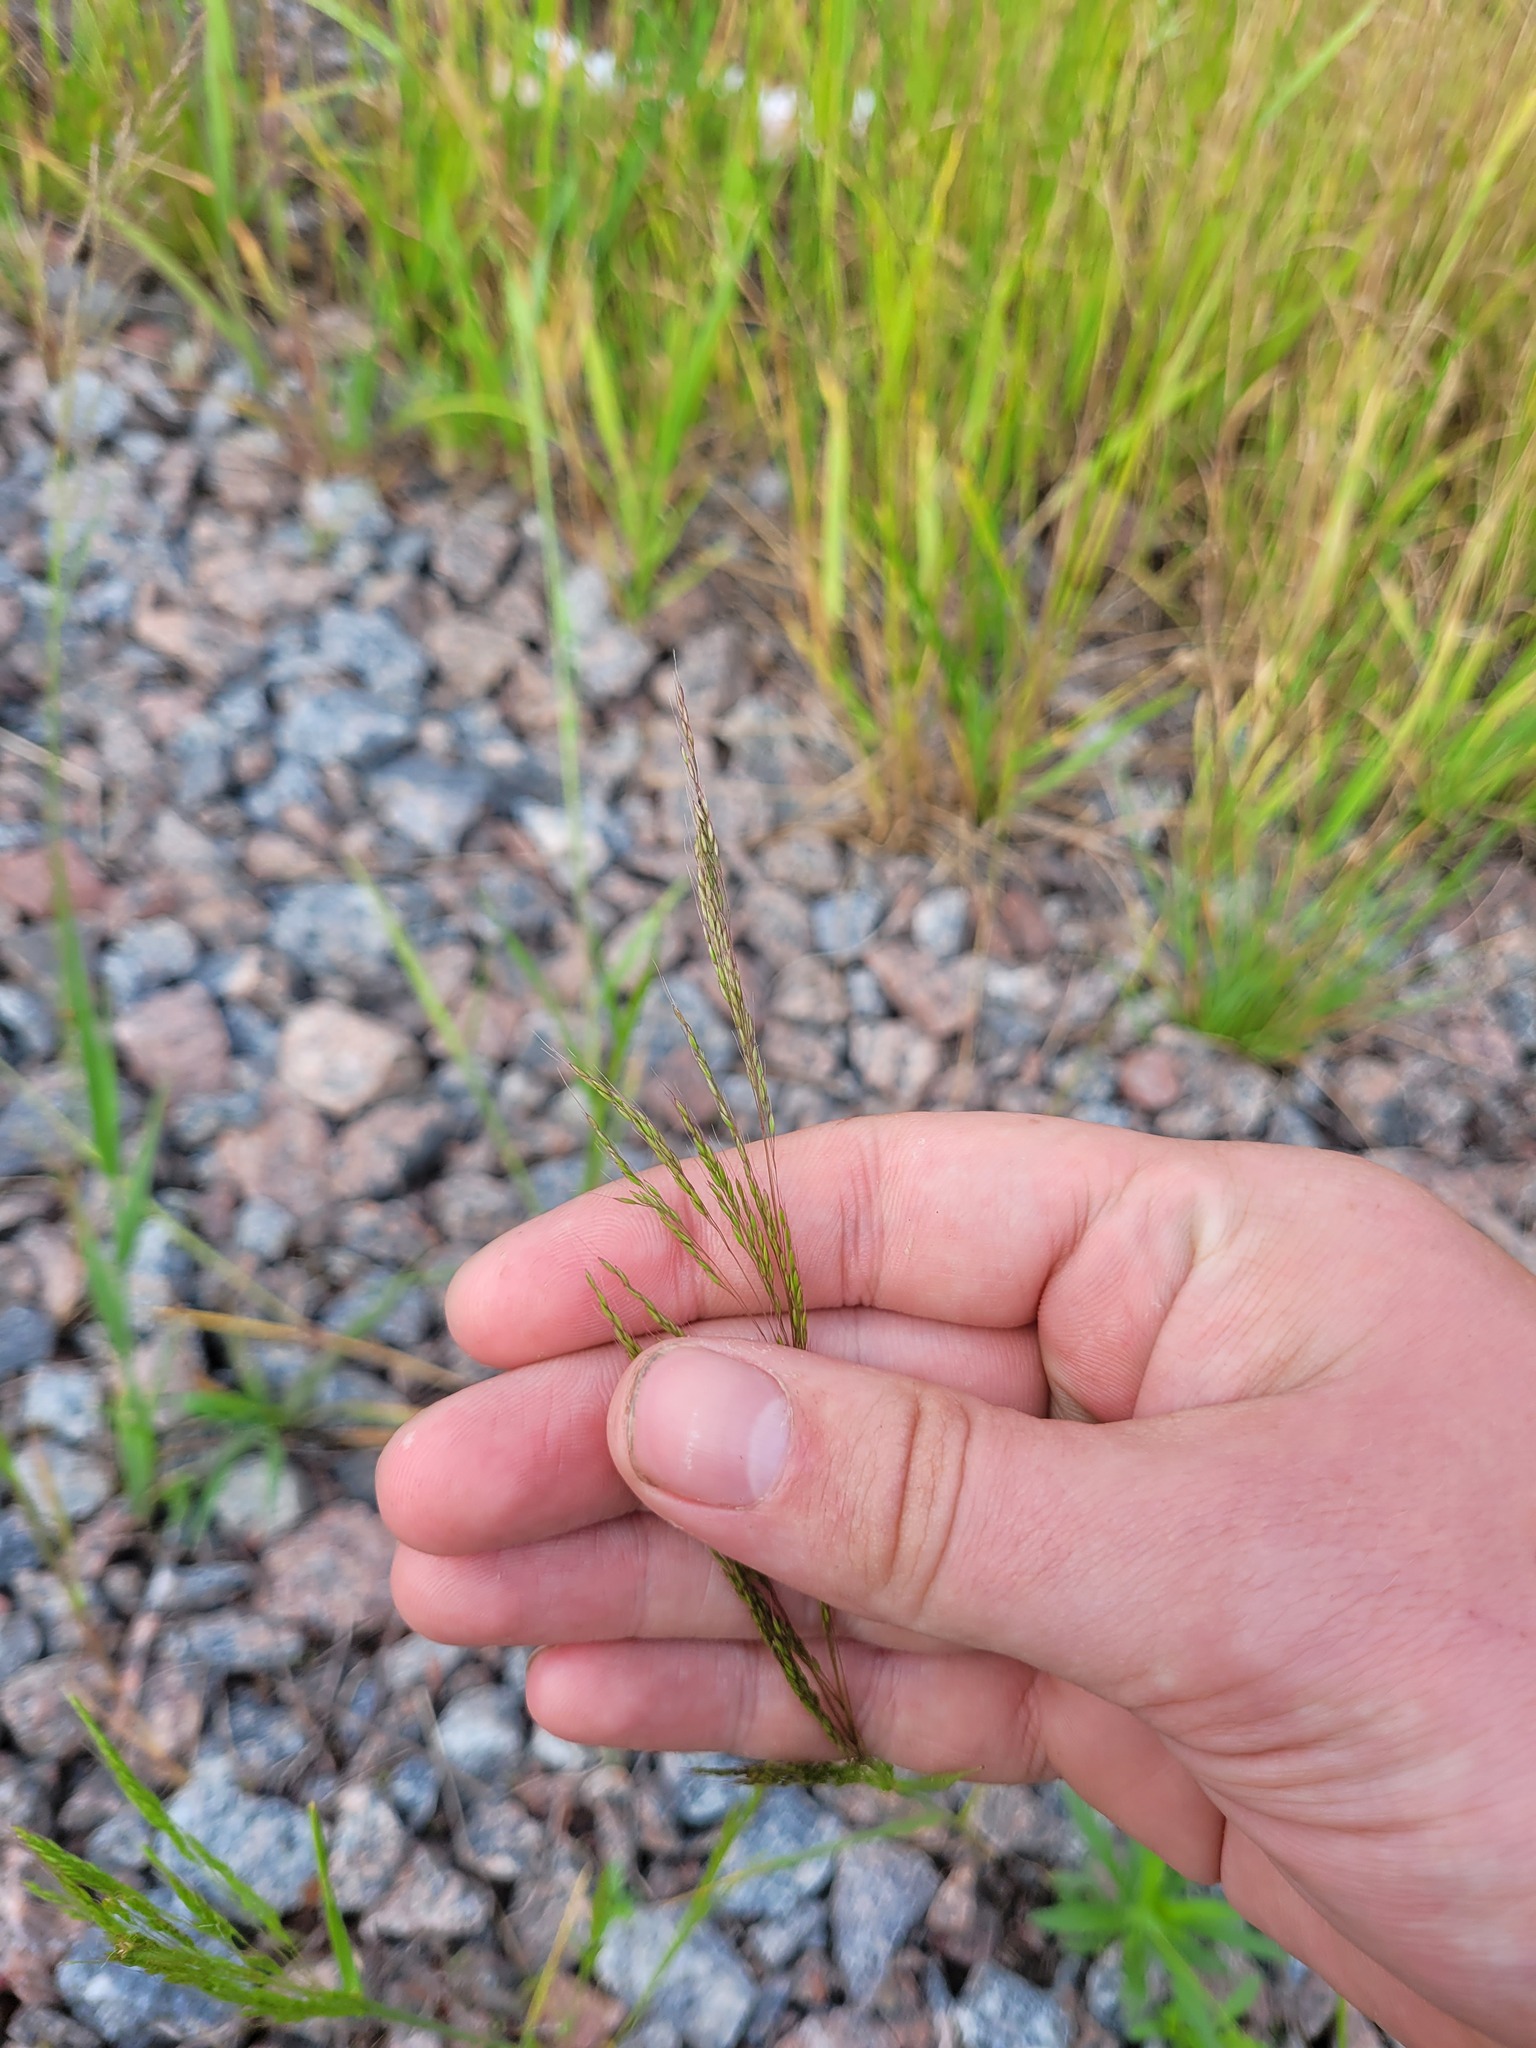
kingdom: Plantae
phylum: Tracheophyta
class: Liliopsida
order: Poales
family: Poaceae
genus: Apera
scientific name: Apera spica-venti
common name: Loose silky-bent
